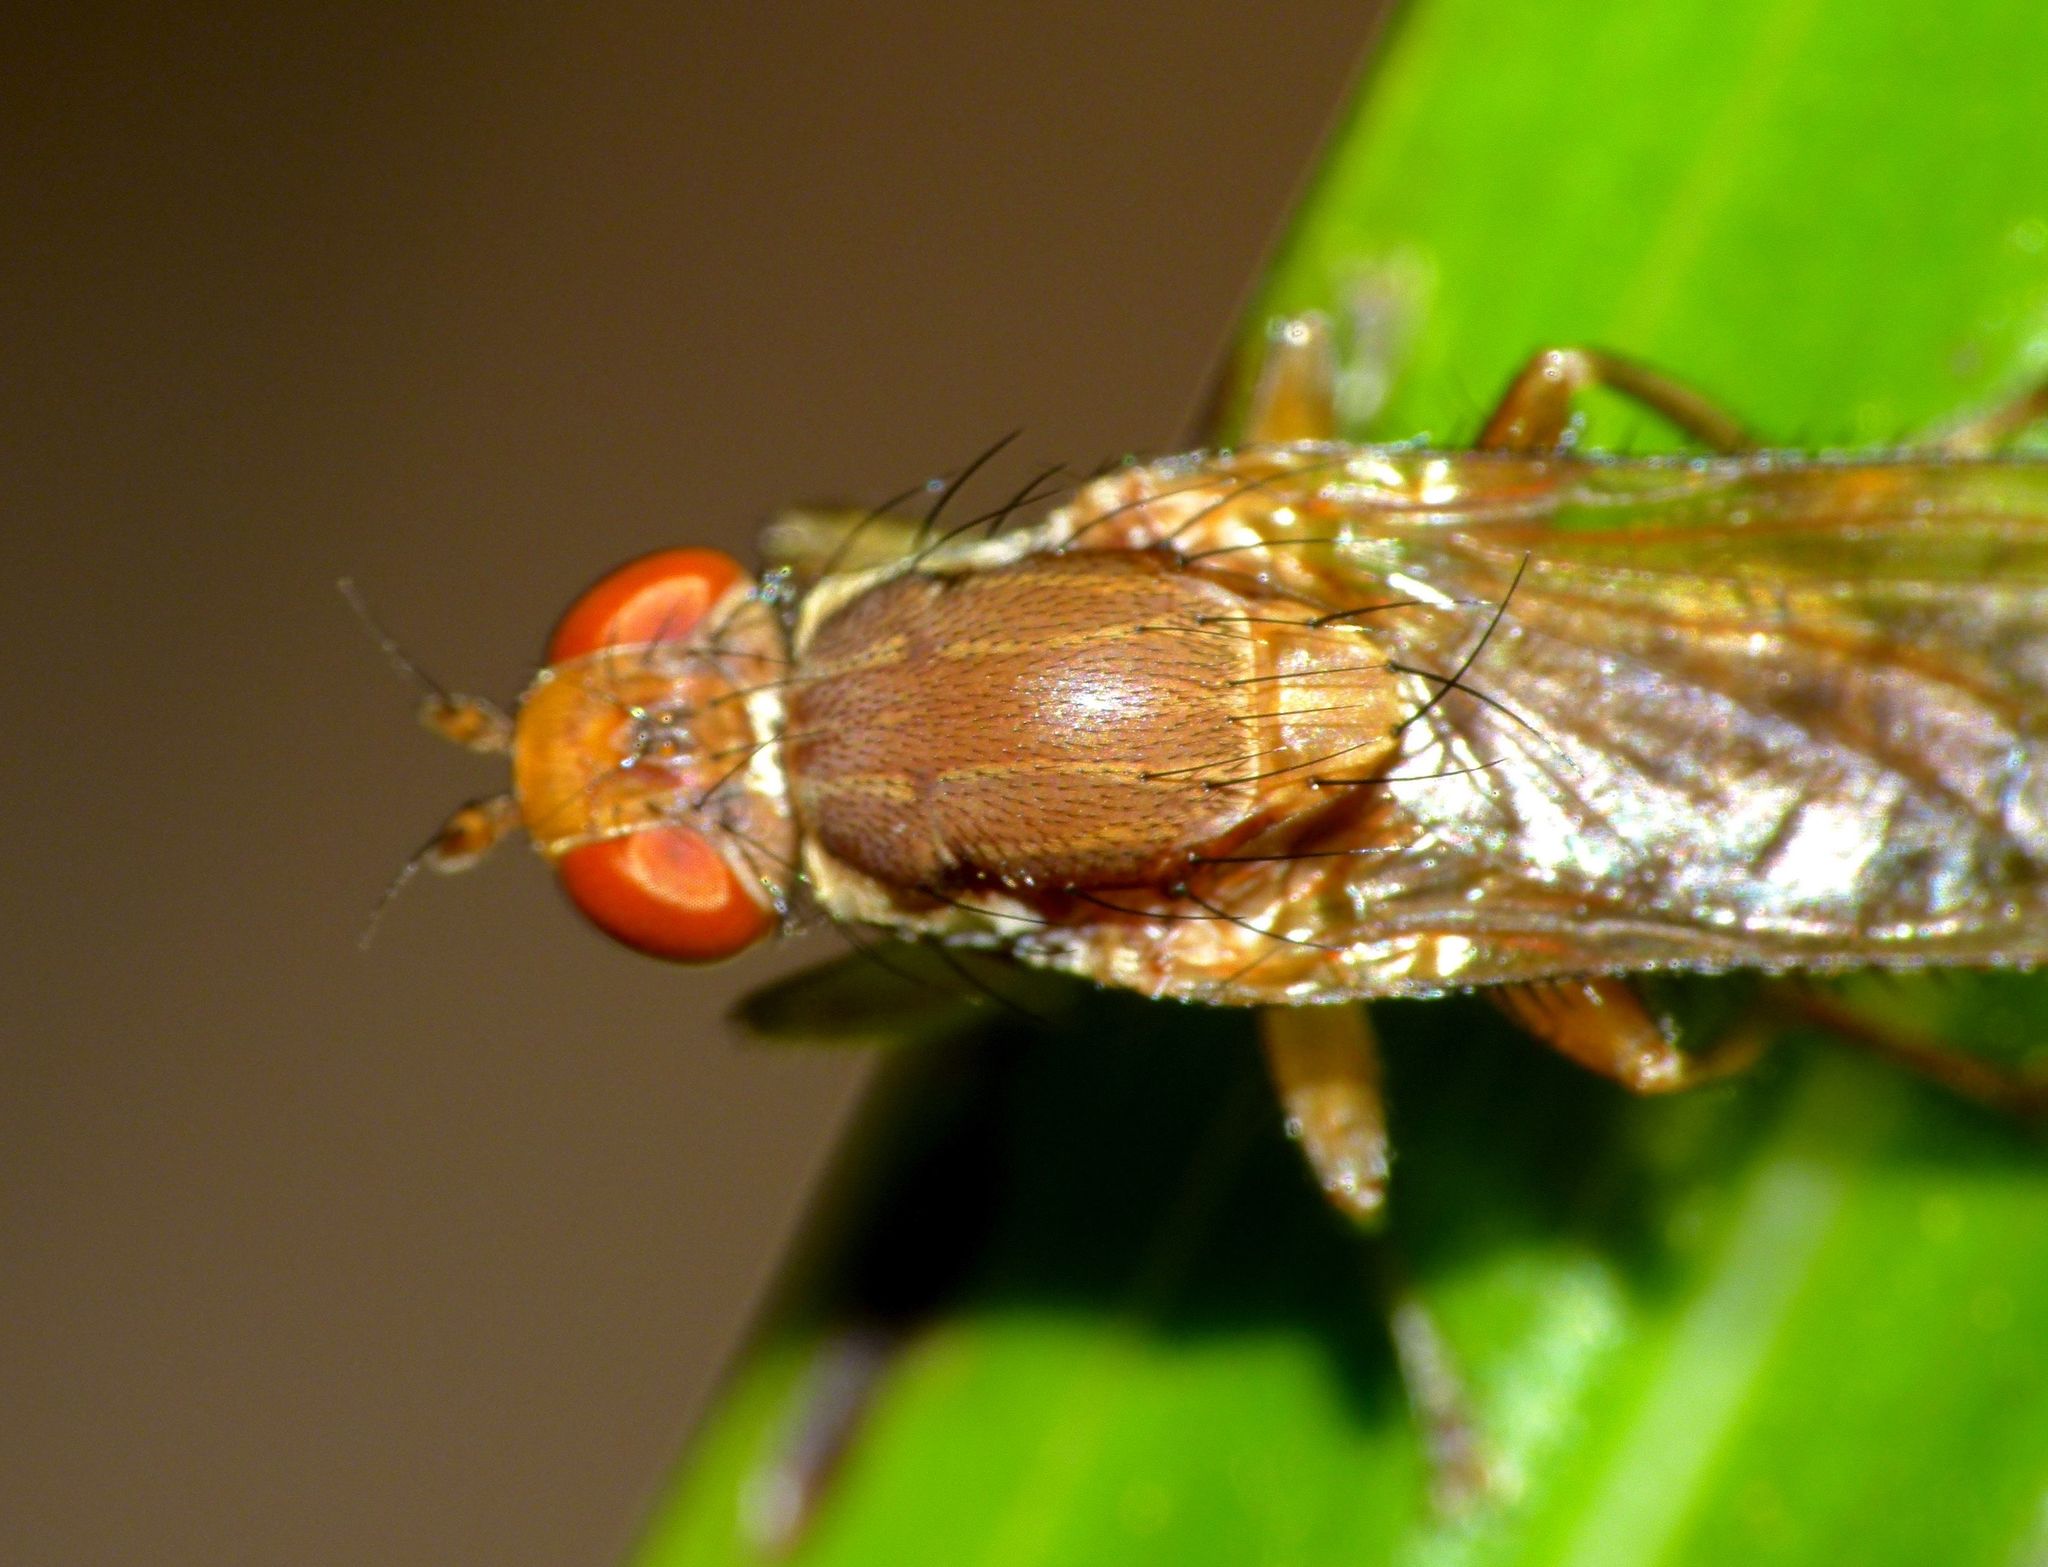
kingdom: Animalia
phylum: Arthropoda
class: Insecta
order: Diptera
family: Helosciomyzidae
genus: Napaeosciomyza
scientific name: Napaeosciomyza spinicosta
